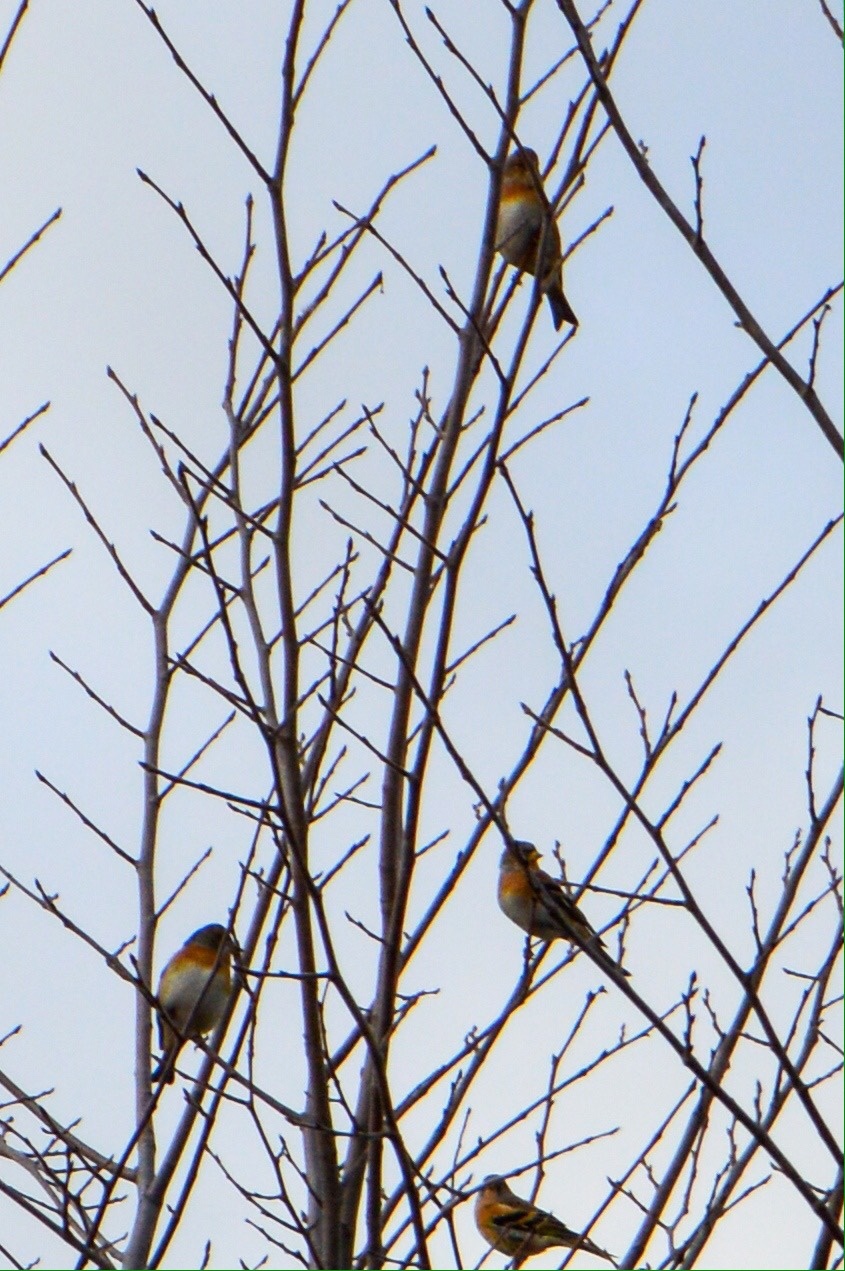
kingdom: Animalia
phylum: Chordata
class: Aves
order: Passeriformes
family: Fringillidae
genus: Fringilla
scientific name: Fringilla montifringilla
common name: Brambling
